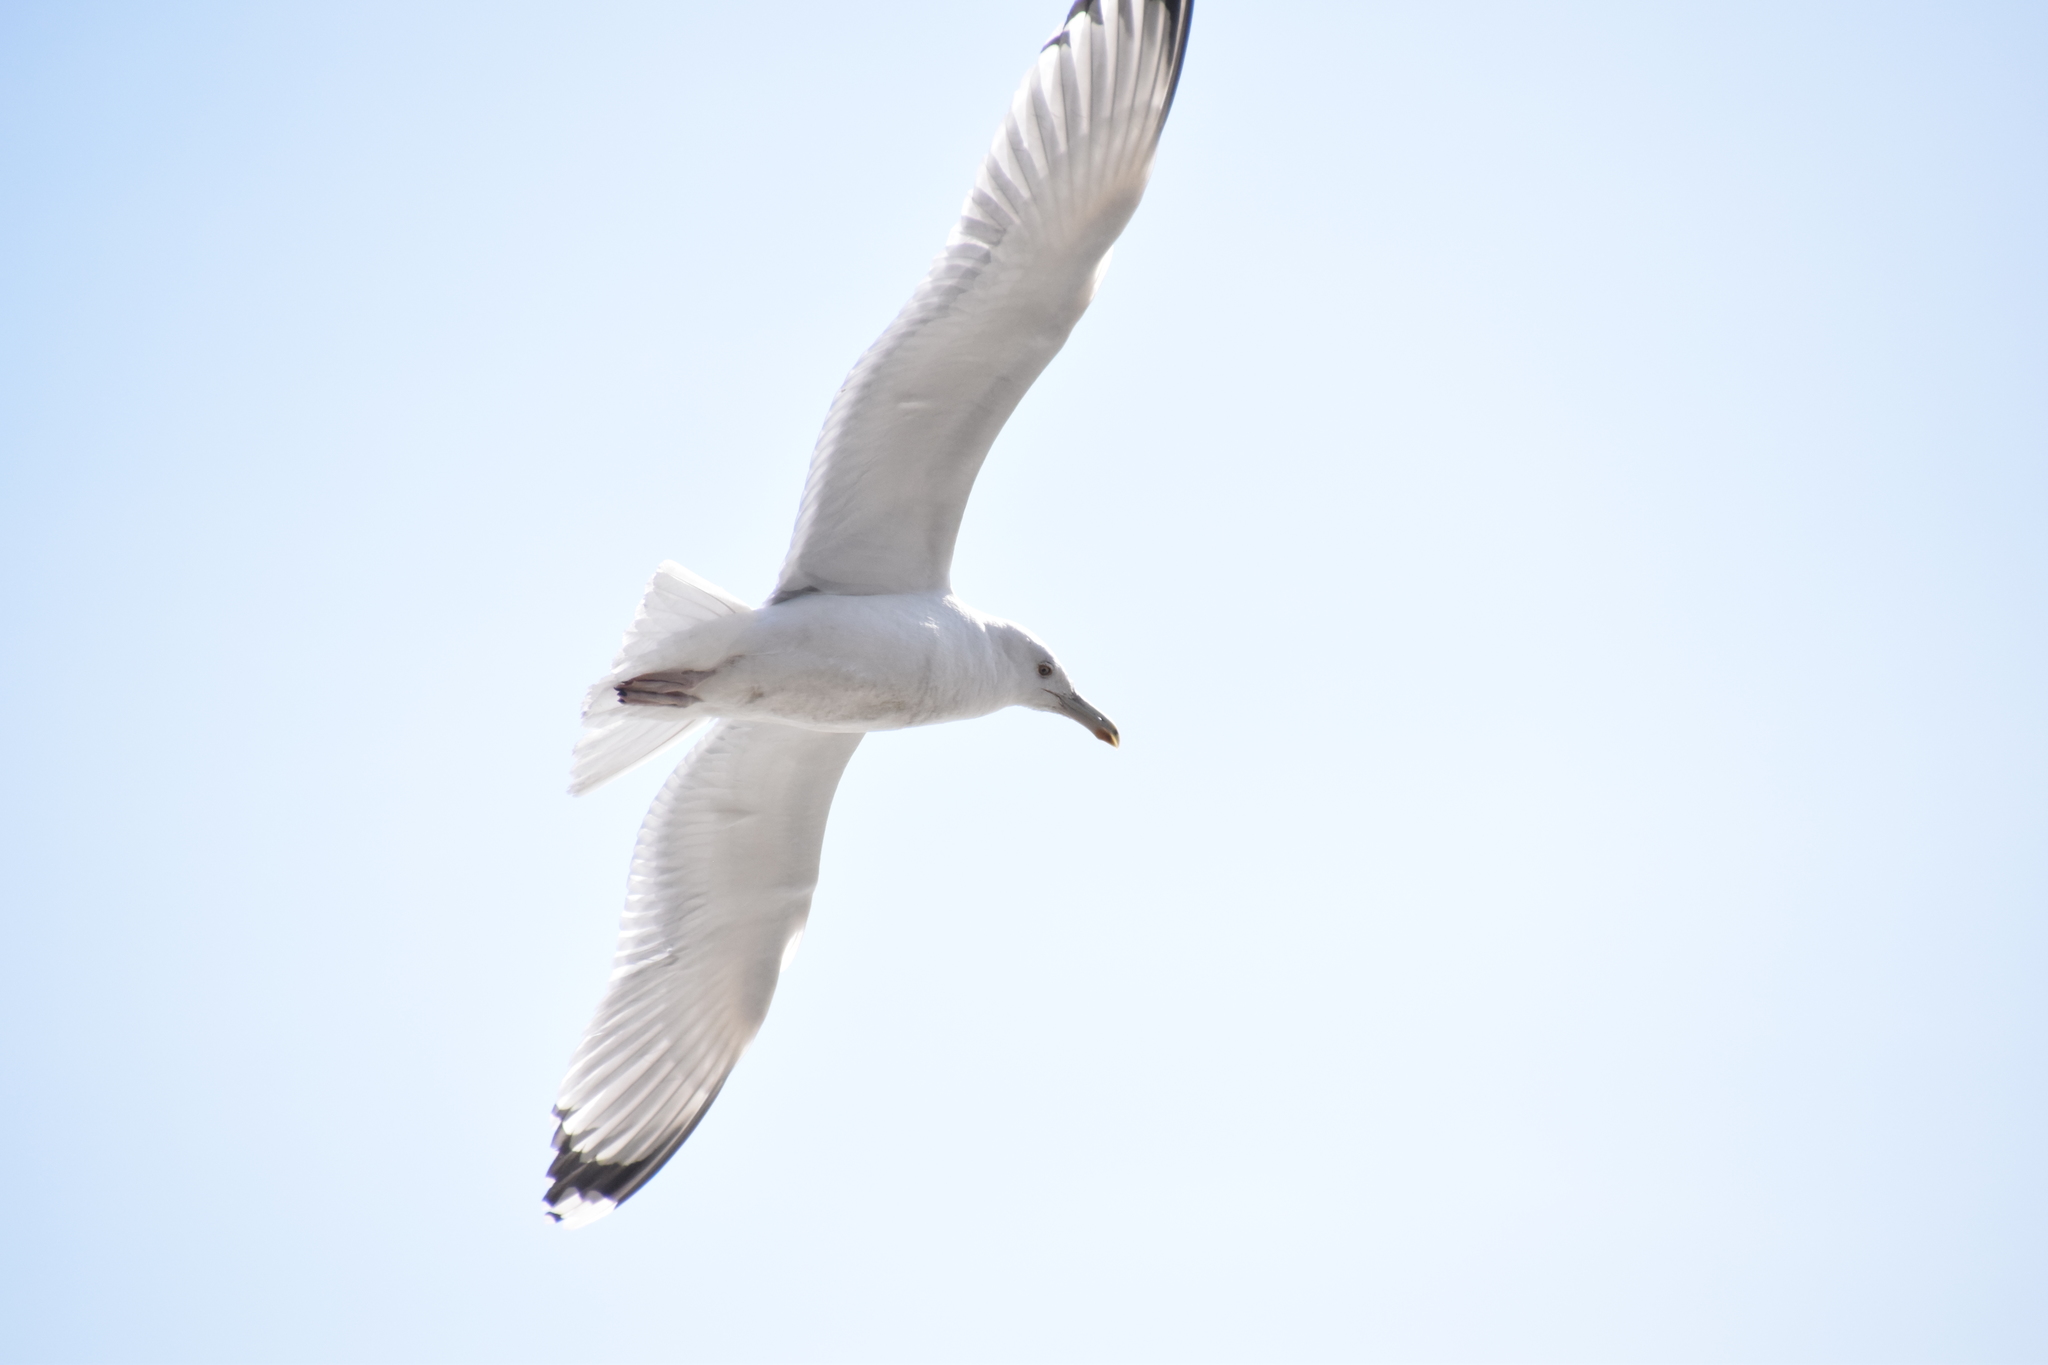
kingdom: Animalia
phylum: Chordata
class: Aves
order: Charadriiformes
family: Laridae
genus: Larus
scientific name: Larus cachinnans
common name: Caspian gull
